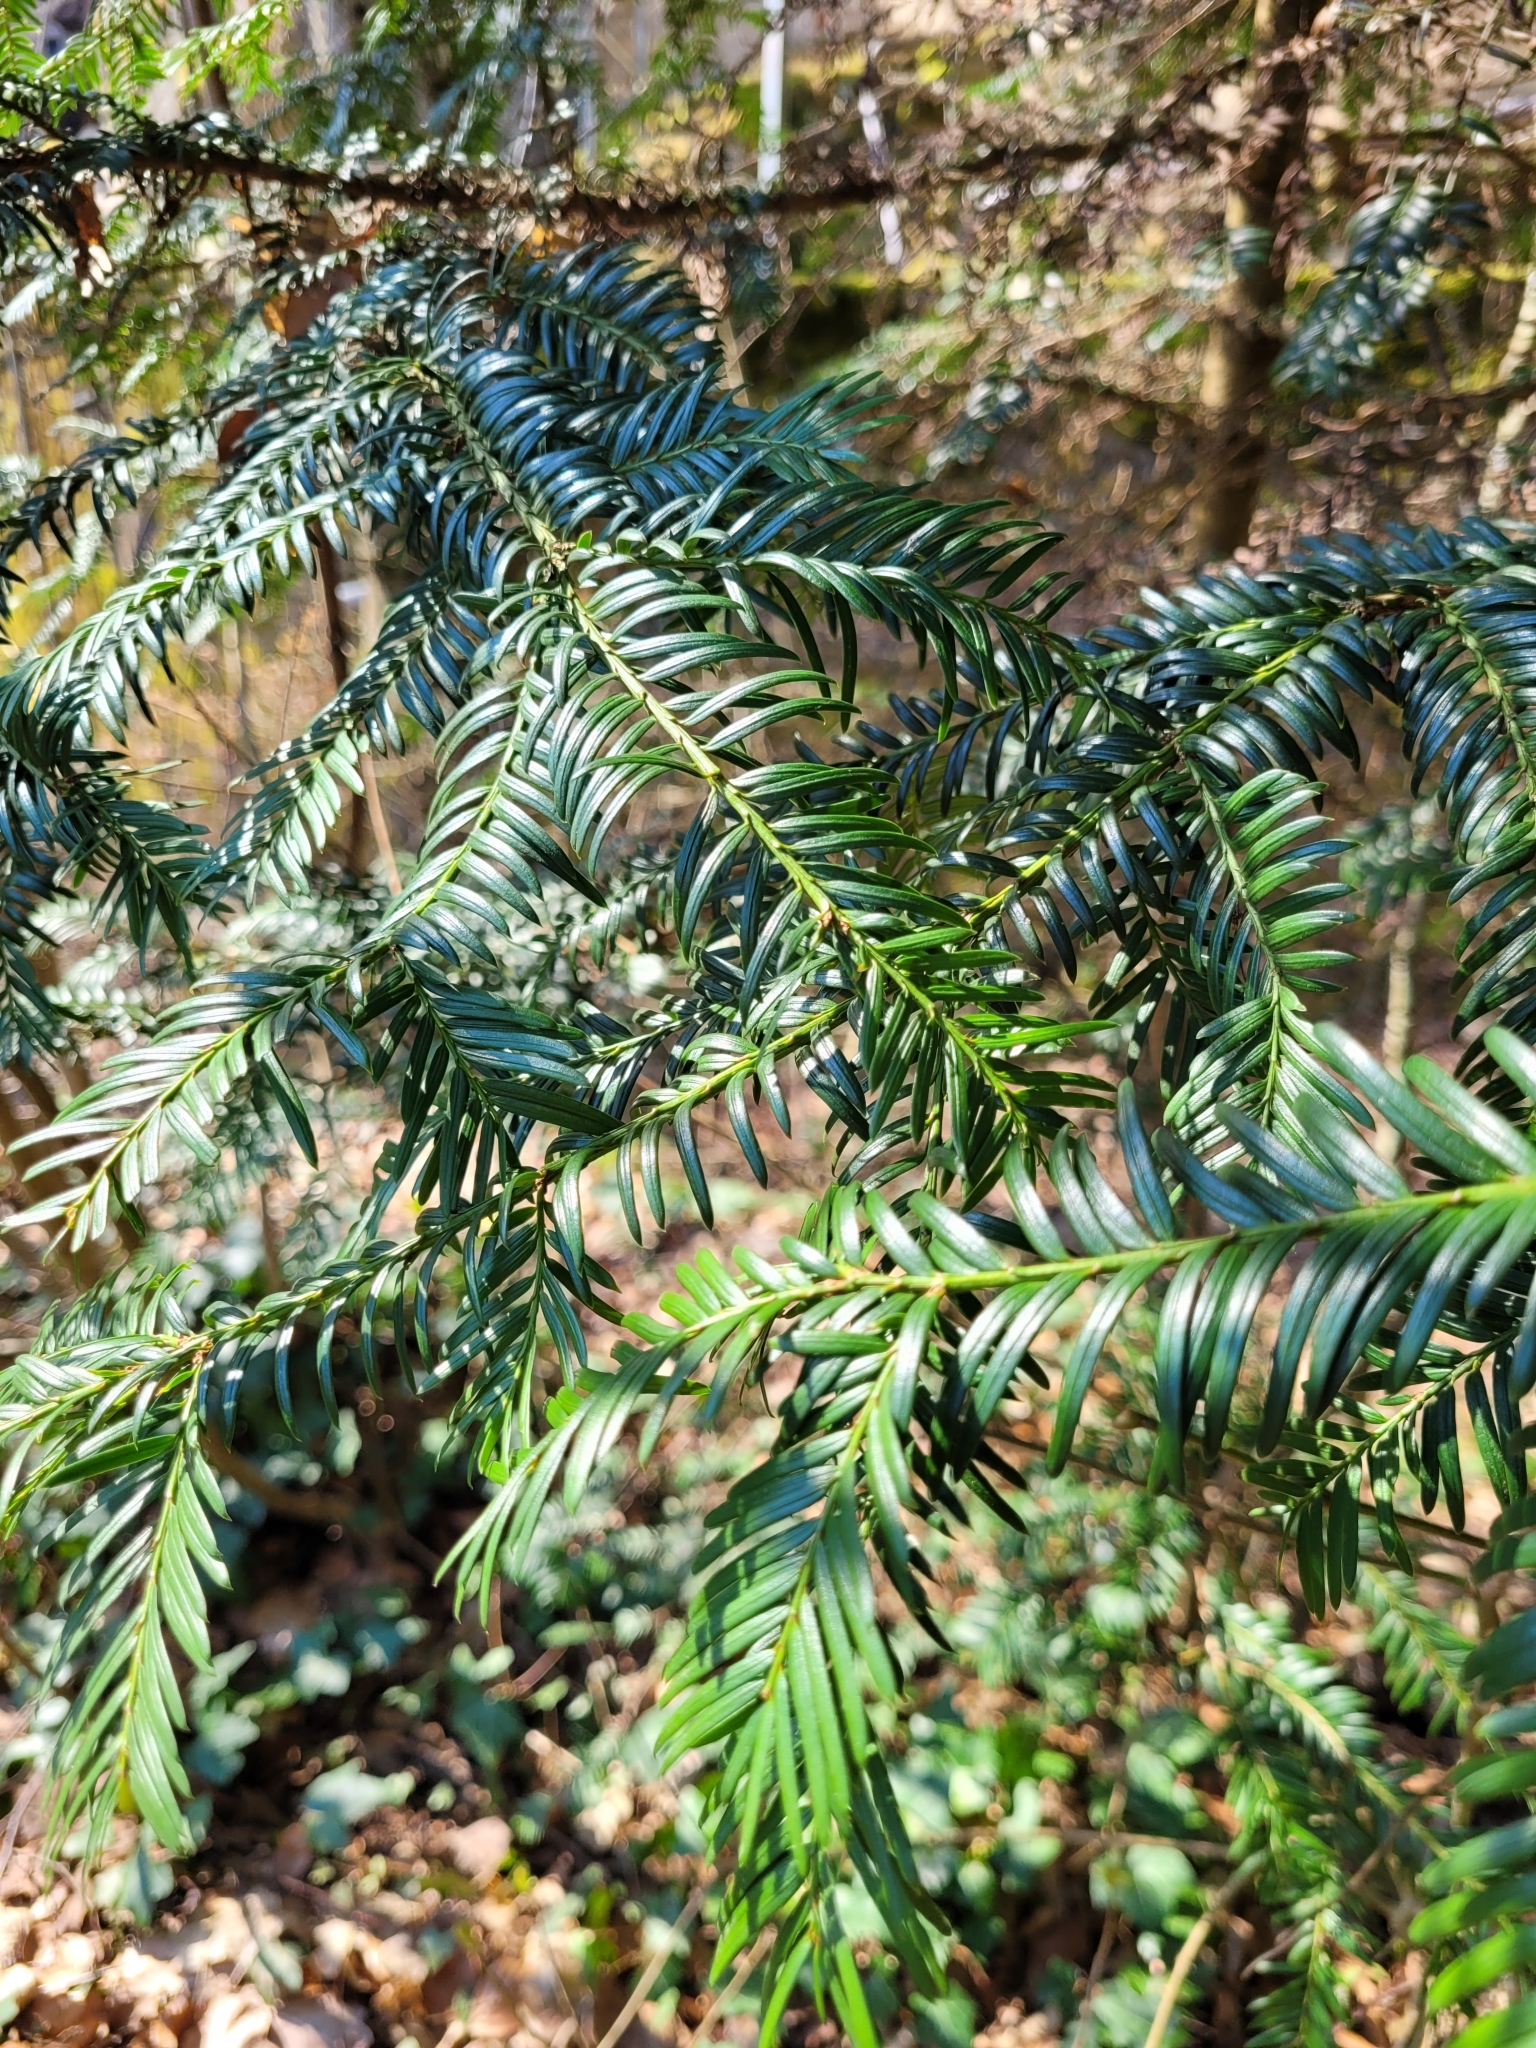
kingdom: Plantae
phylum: Tracheophyta
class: Pinopsida
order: Pinales
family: Taxaceae
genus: Taxus
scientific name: Taxus baccata
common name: Yew
